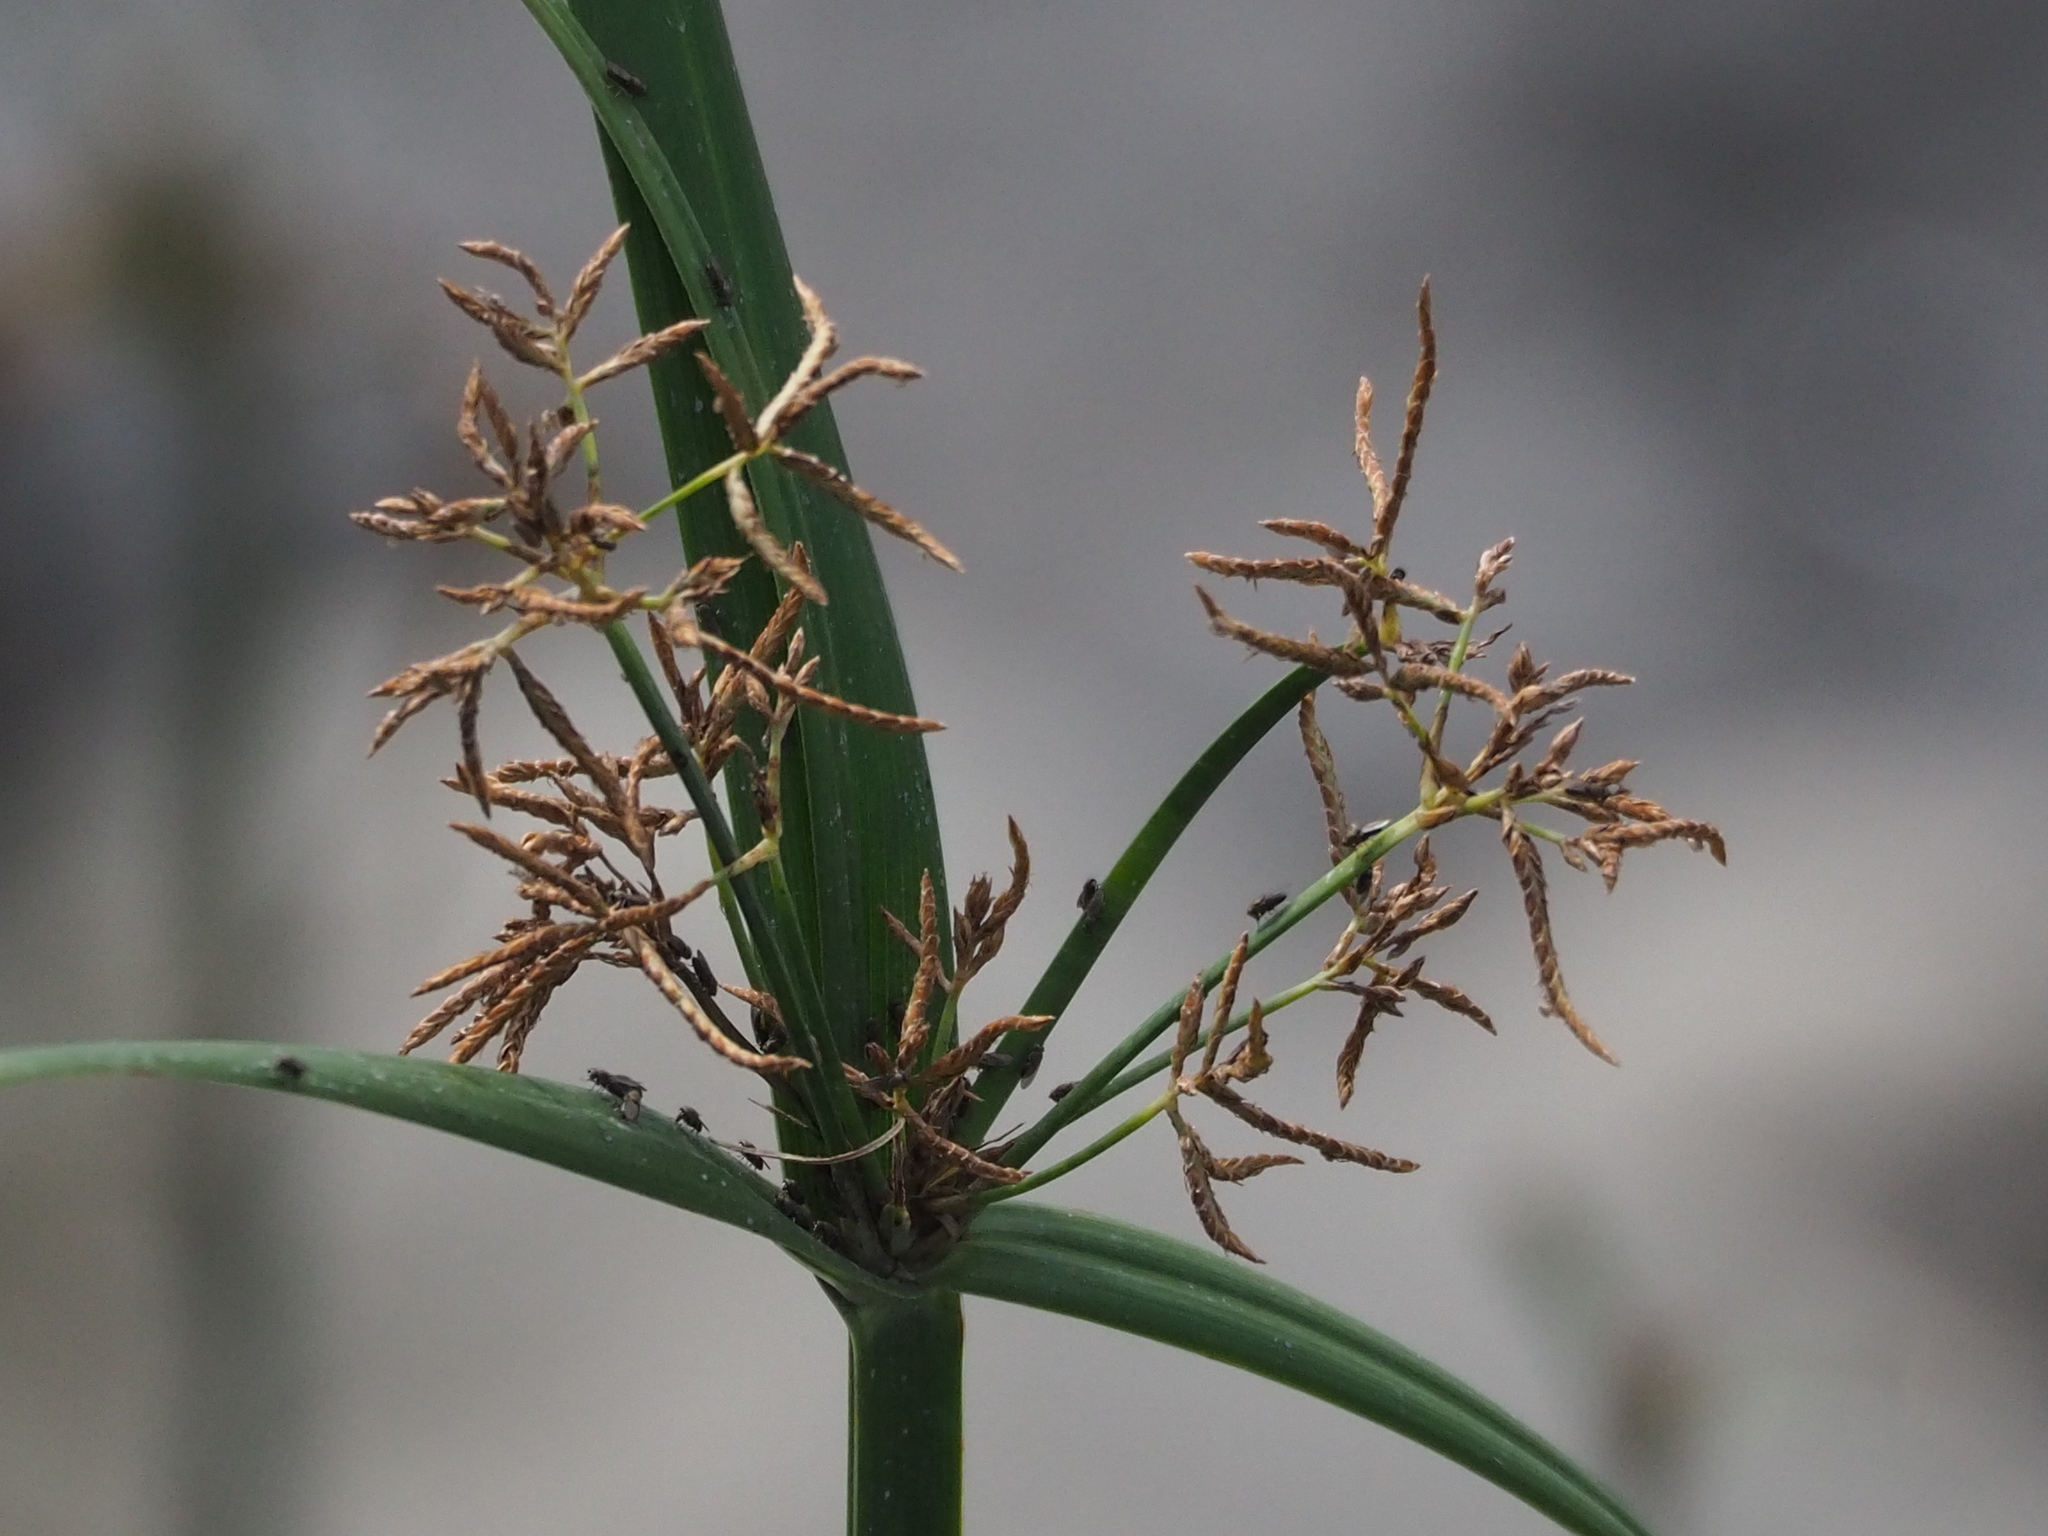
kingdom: Plantae
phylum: Tracheophyta
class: Liliopsida
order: Poales
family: Cyperaceae
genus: Cyperus
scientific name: Cyperus malaccensis
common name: Shichito matgrass
